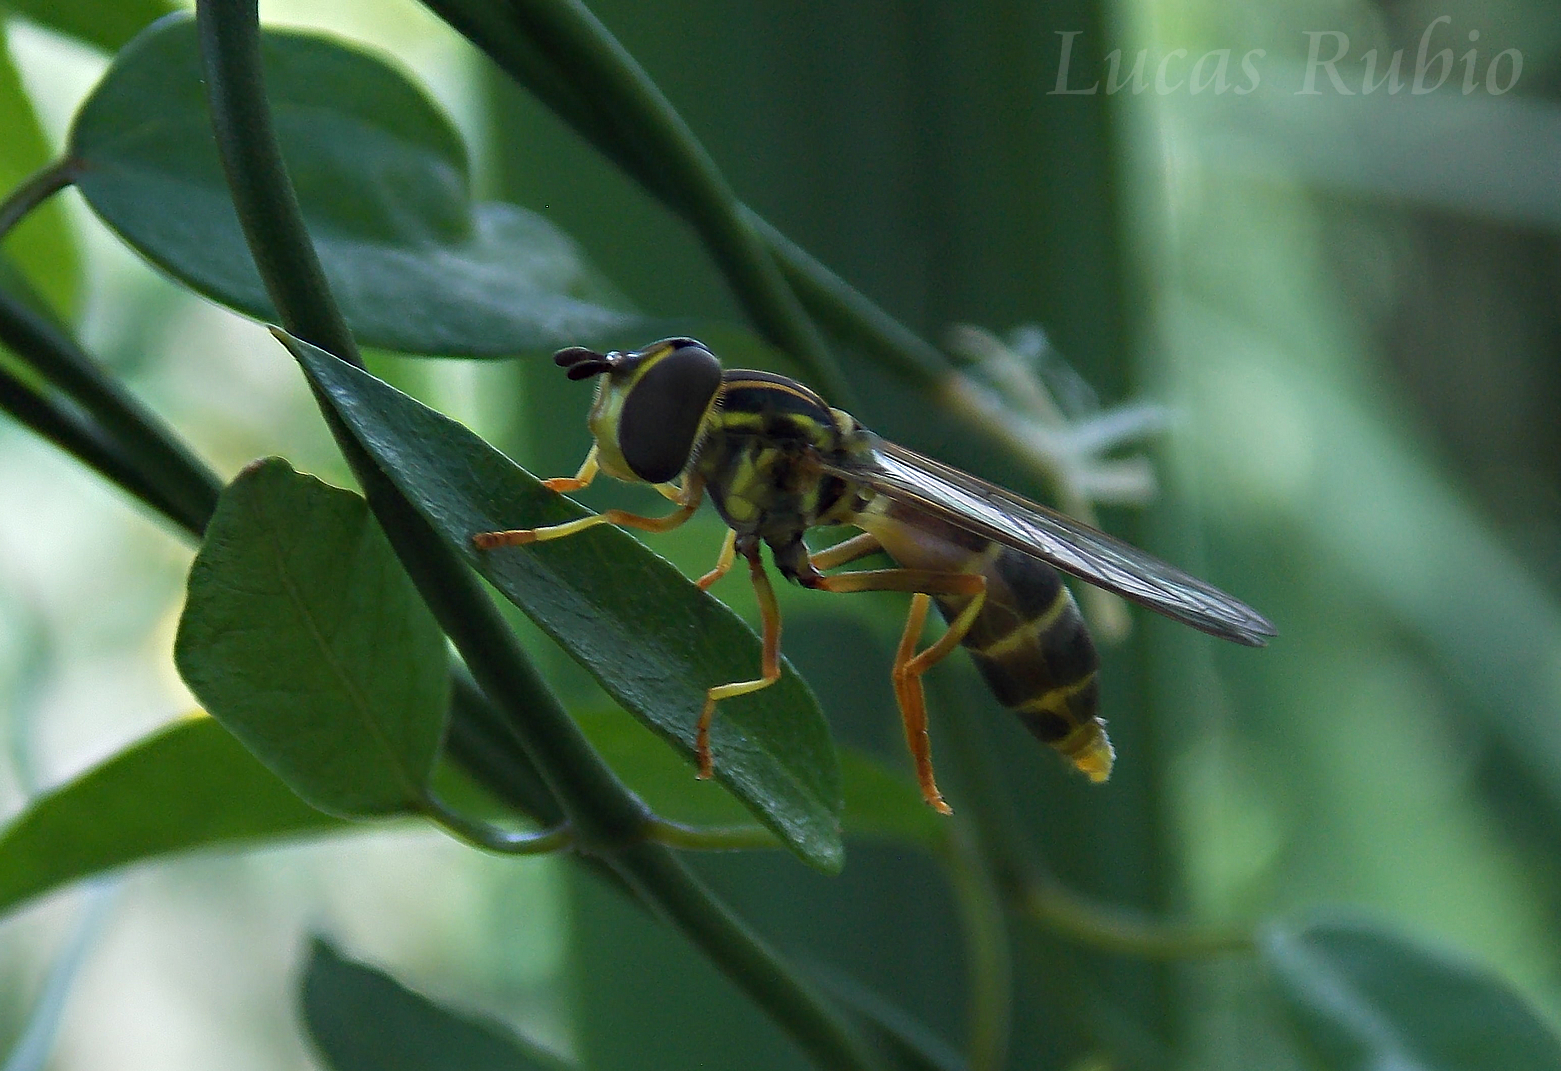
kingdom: Animalia
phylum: Arthropoda
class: Insecta
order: Diptera
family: Syrphidae
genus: Mimocalla
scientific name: Mimocalla bonariensis
